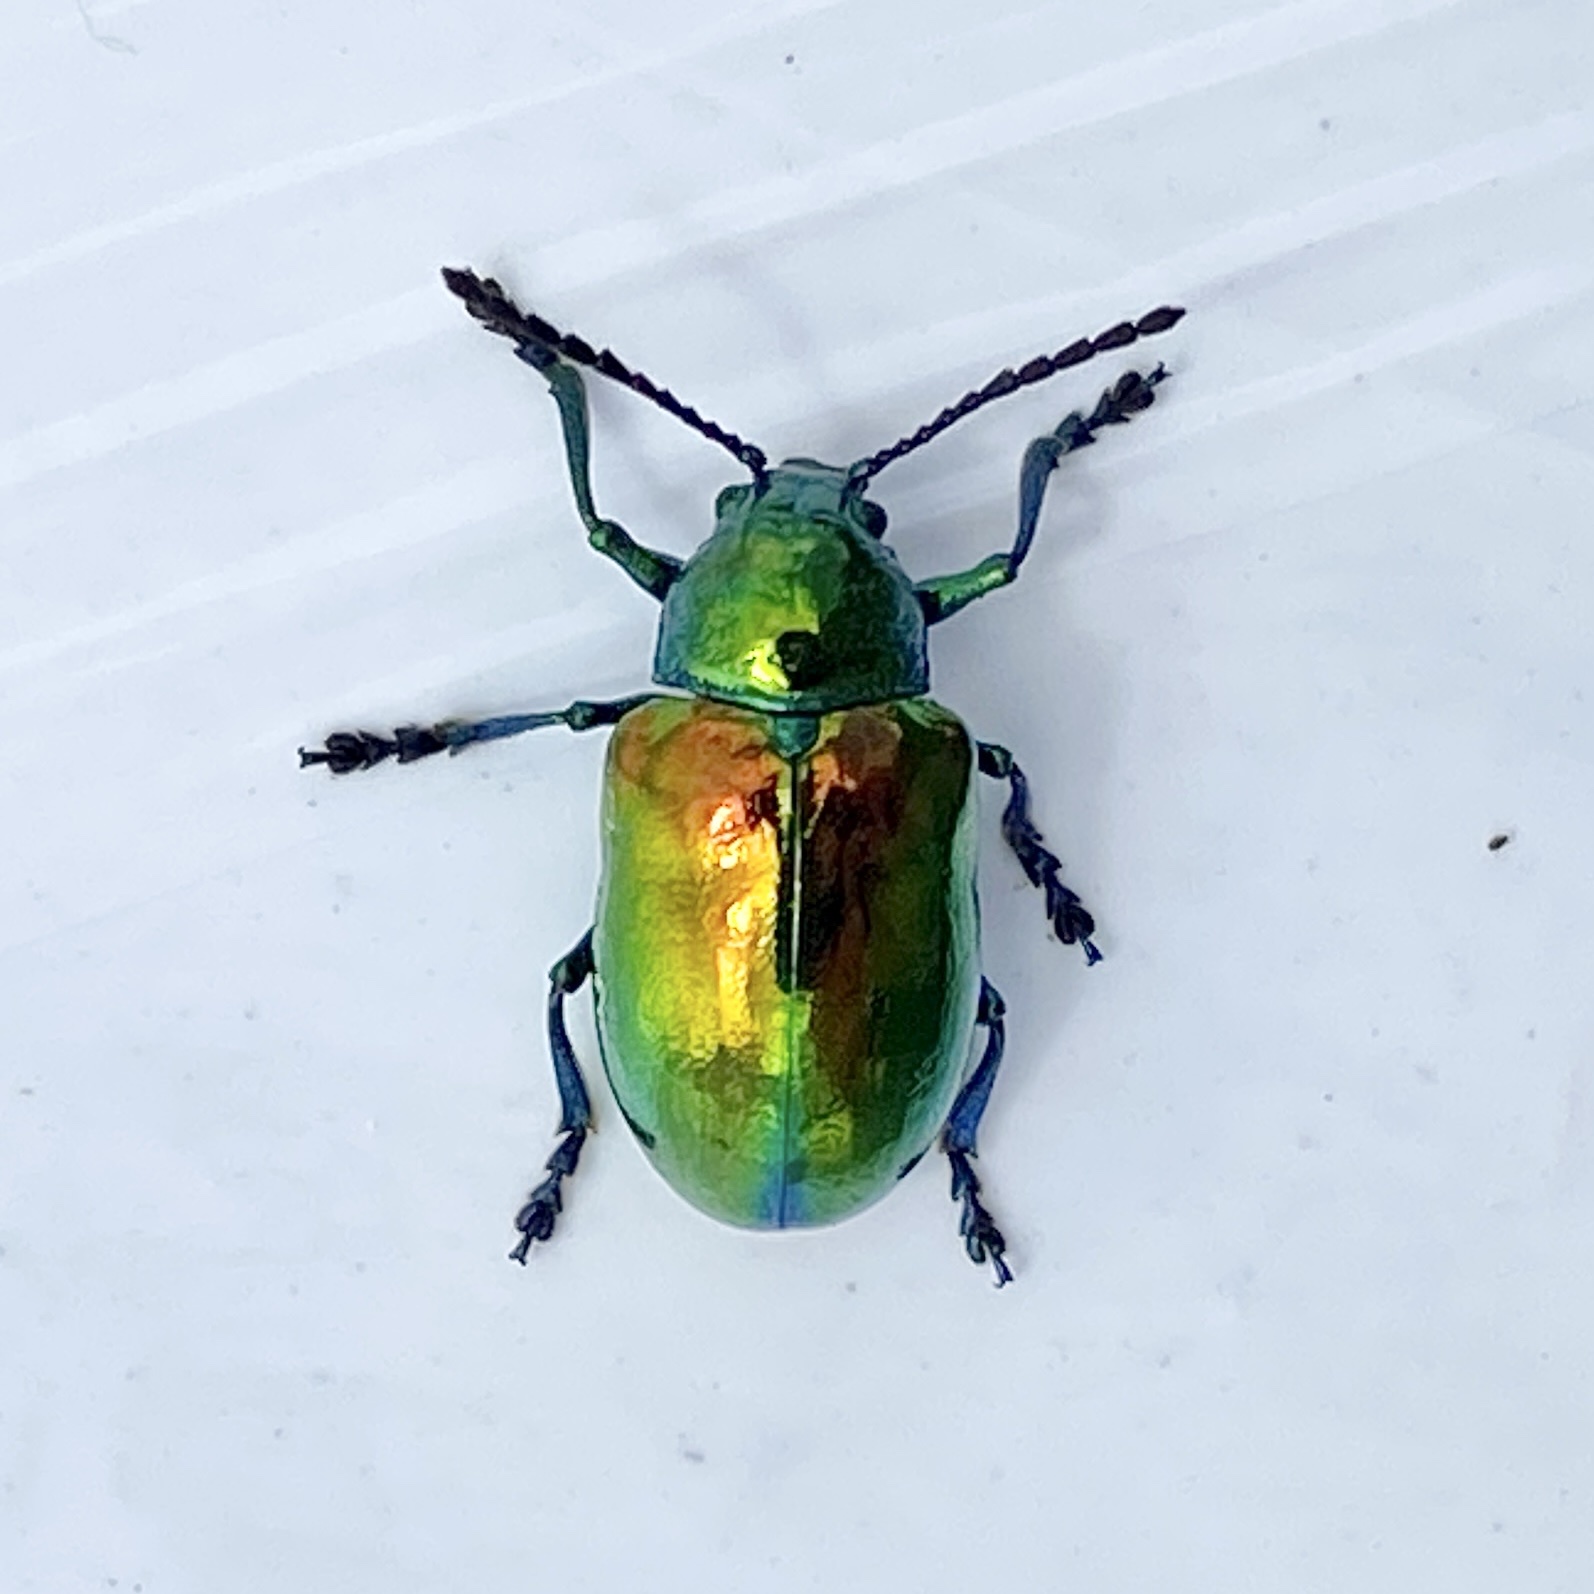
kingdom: Animalia
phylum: Arthropoda
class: Insecta
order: Coleoptera
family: Chrysomelidae
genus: Chrysochus
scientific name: Chrysochus auratus
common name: Dogbane leaf beetle
